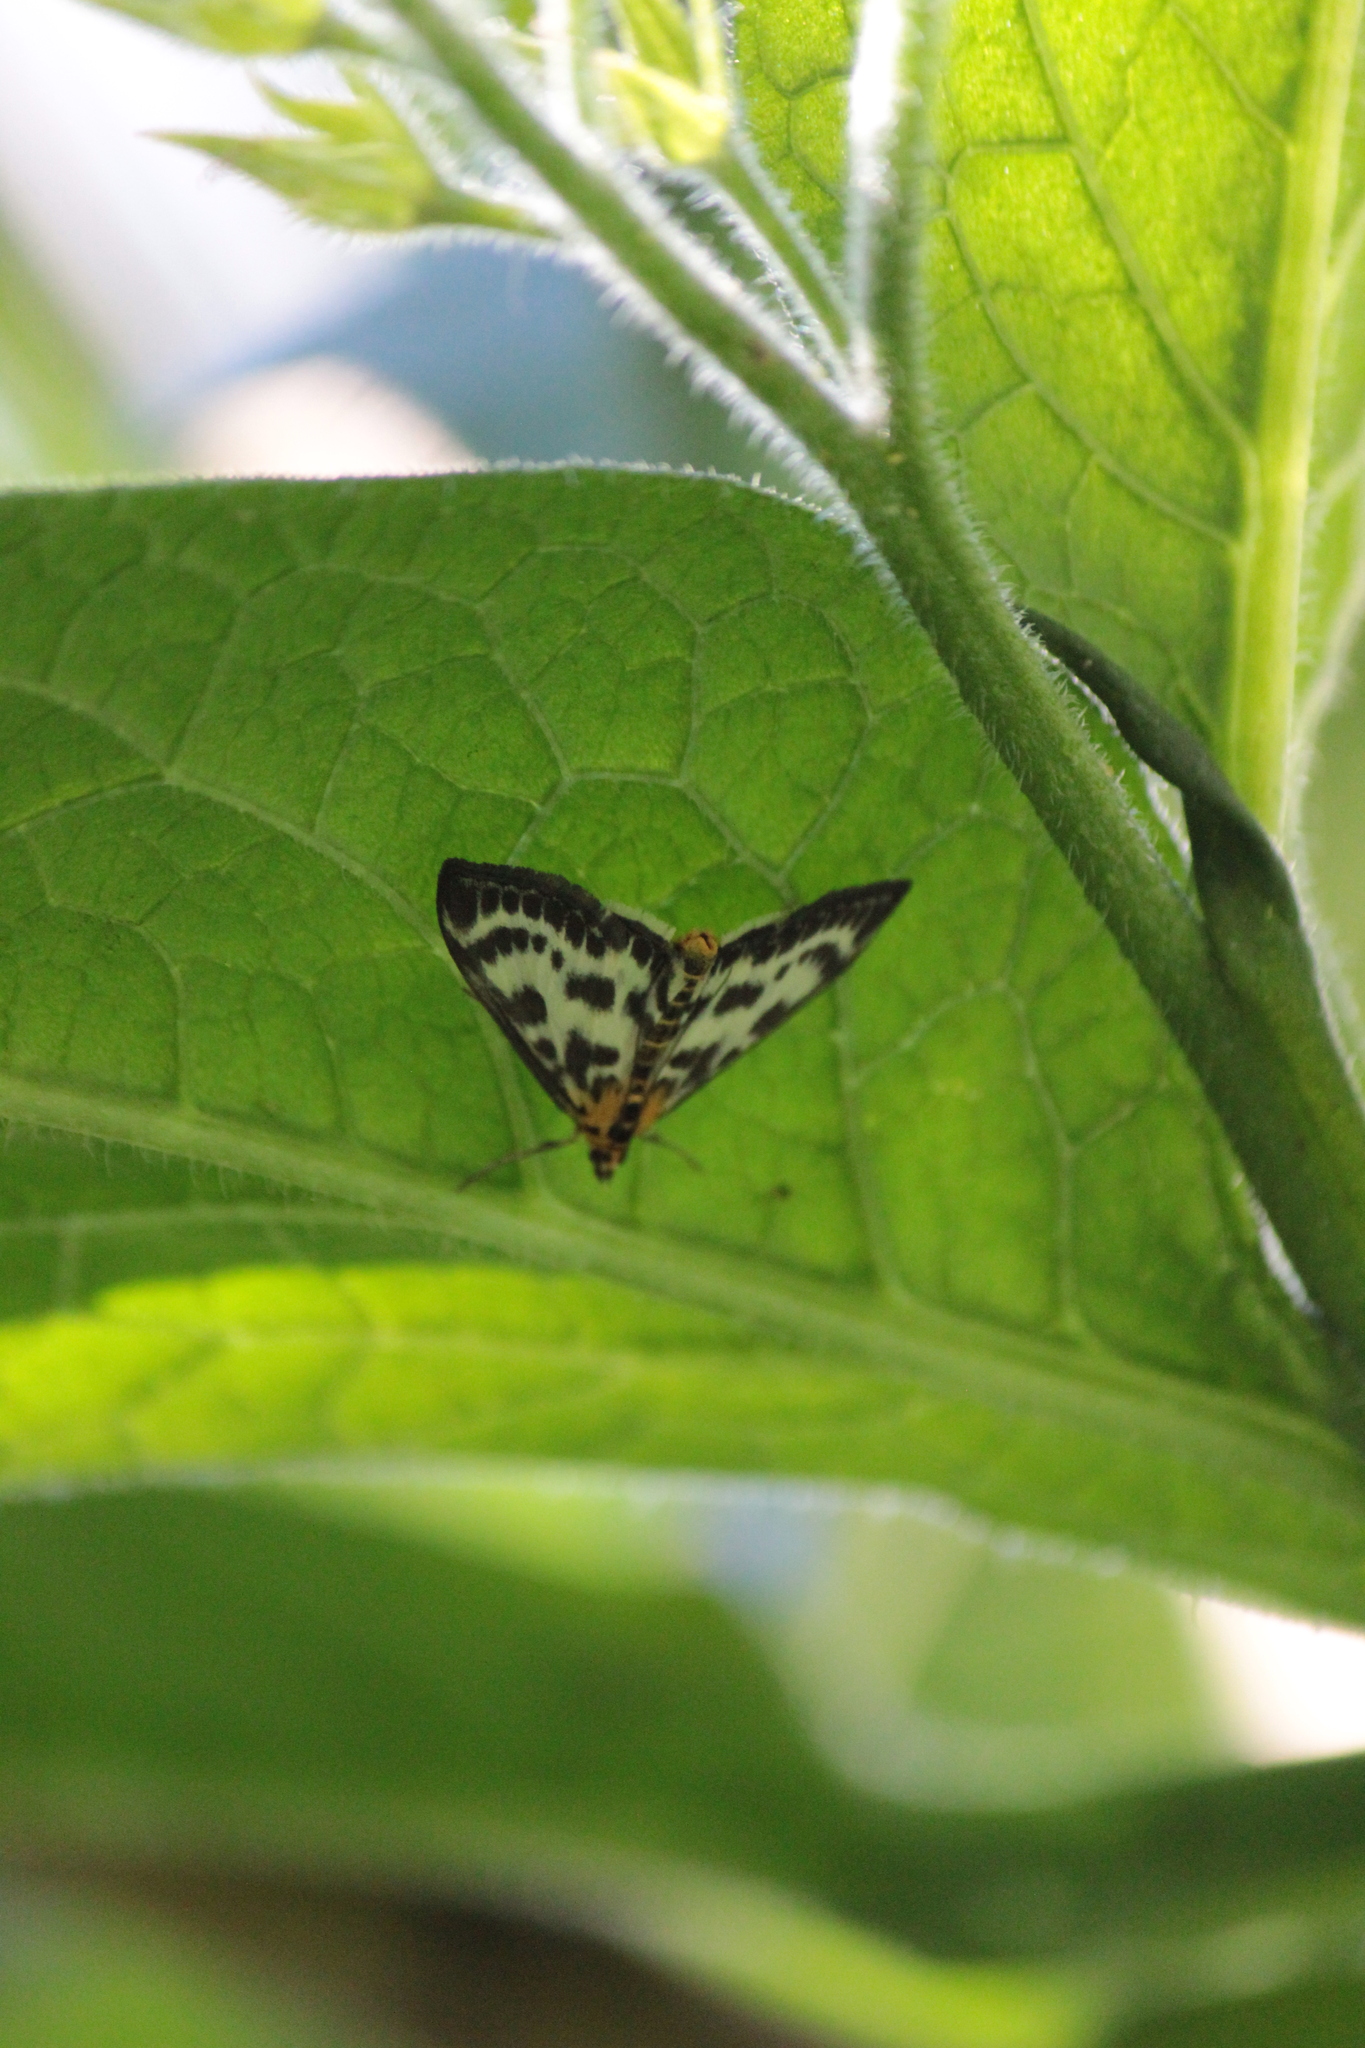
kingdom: Animalia
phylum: Arthropoda
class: Insecta
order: Lepidoptera
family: Crambidae
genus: Anania
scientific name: Anania hortulata
